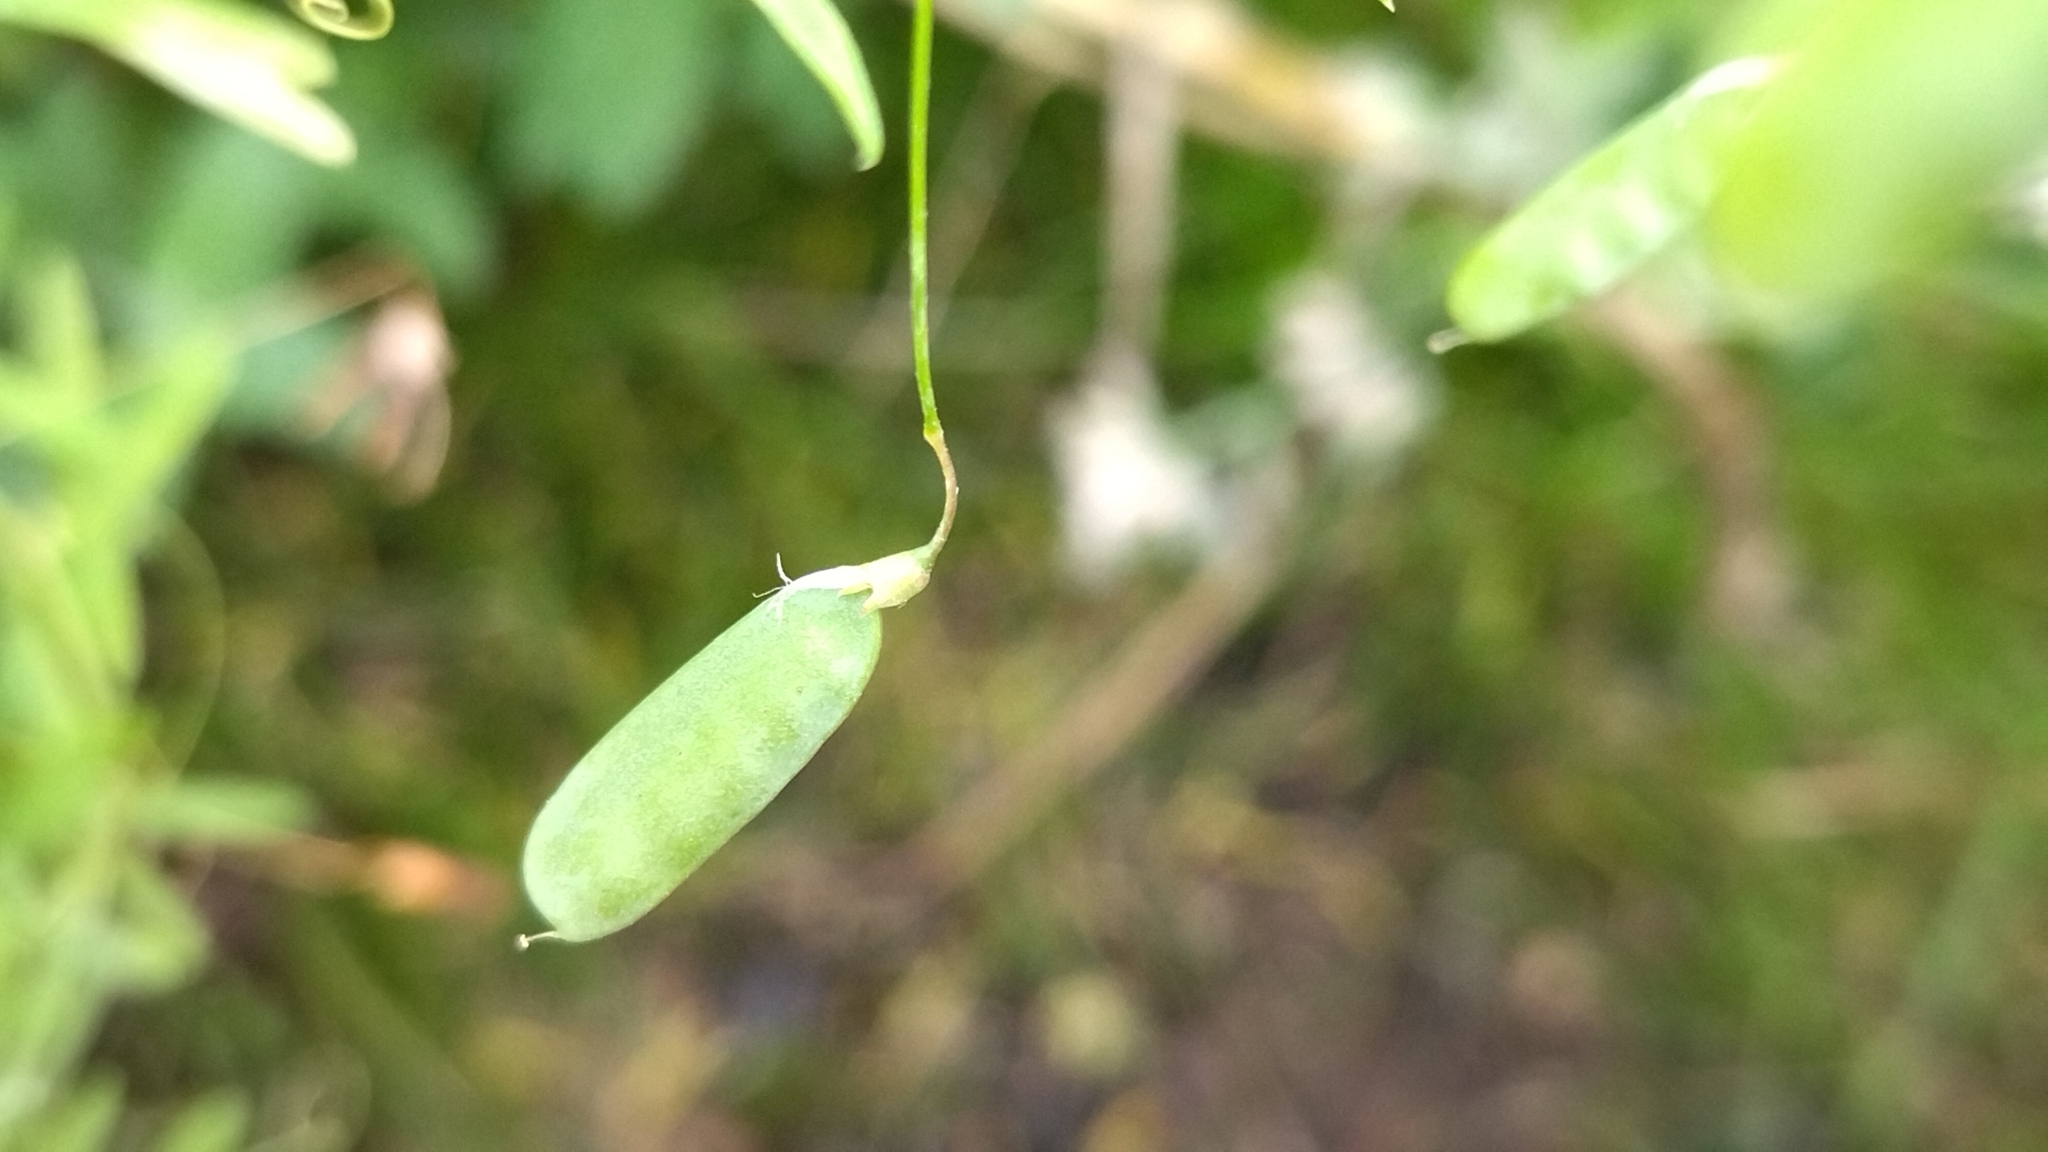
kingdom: Plantae
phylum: Tracheophyta
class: Magnoliopsida
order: Fabales
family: Fabaceae
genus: Vicia
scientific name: Vicia tetrasperma
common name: Smooth tare
